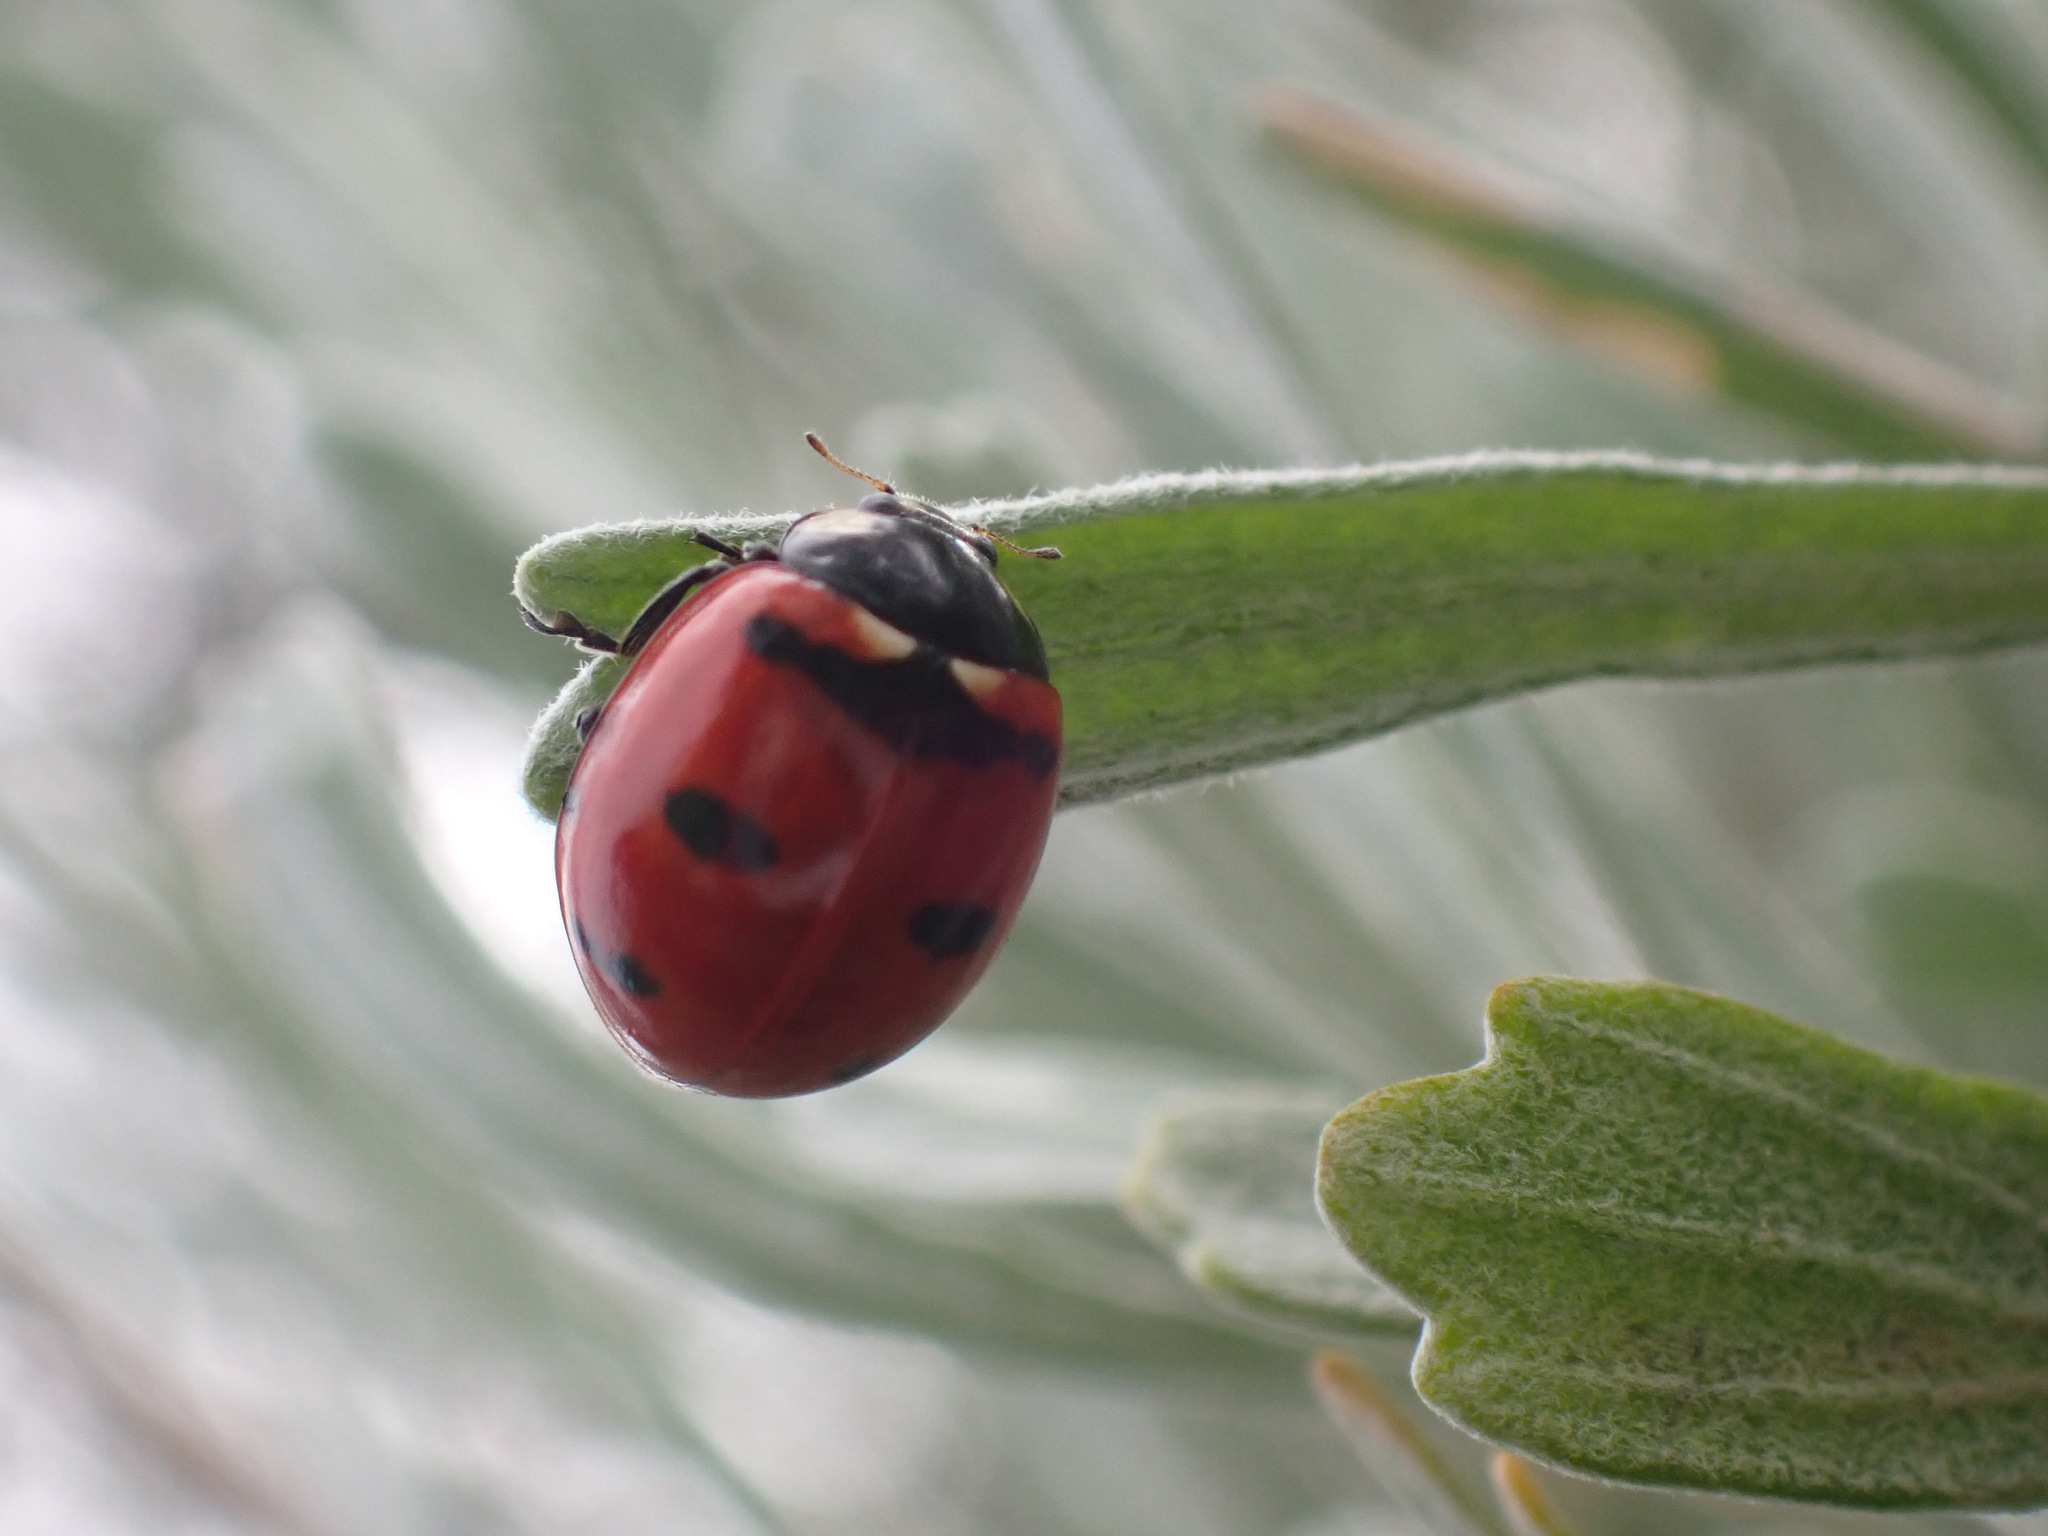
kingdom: Animalia
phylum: Arthropoda
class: Insecta
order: Coleoptera
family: Coccinellidae
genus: Coccinella
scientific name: Coccinella transversoguttata
